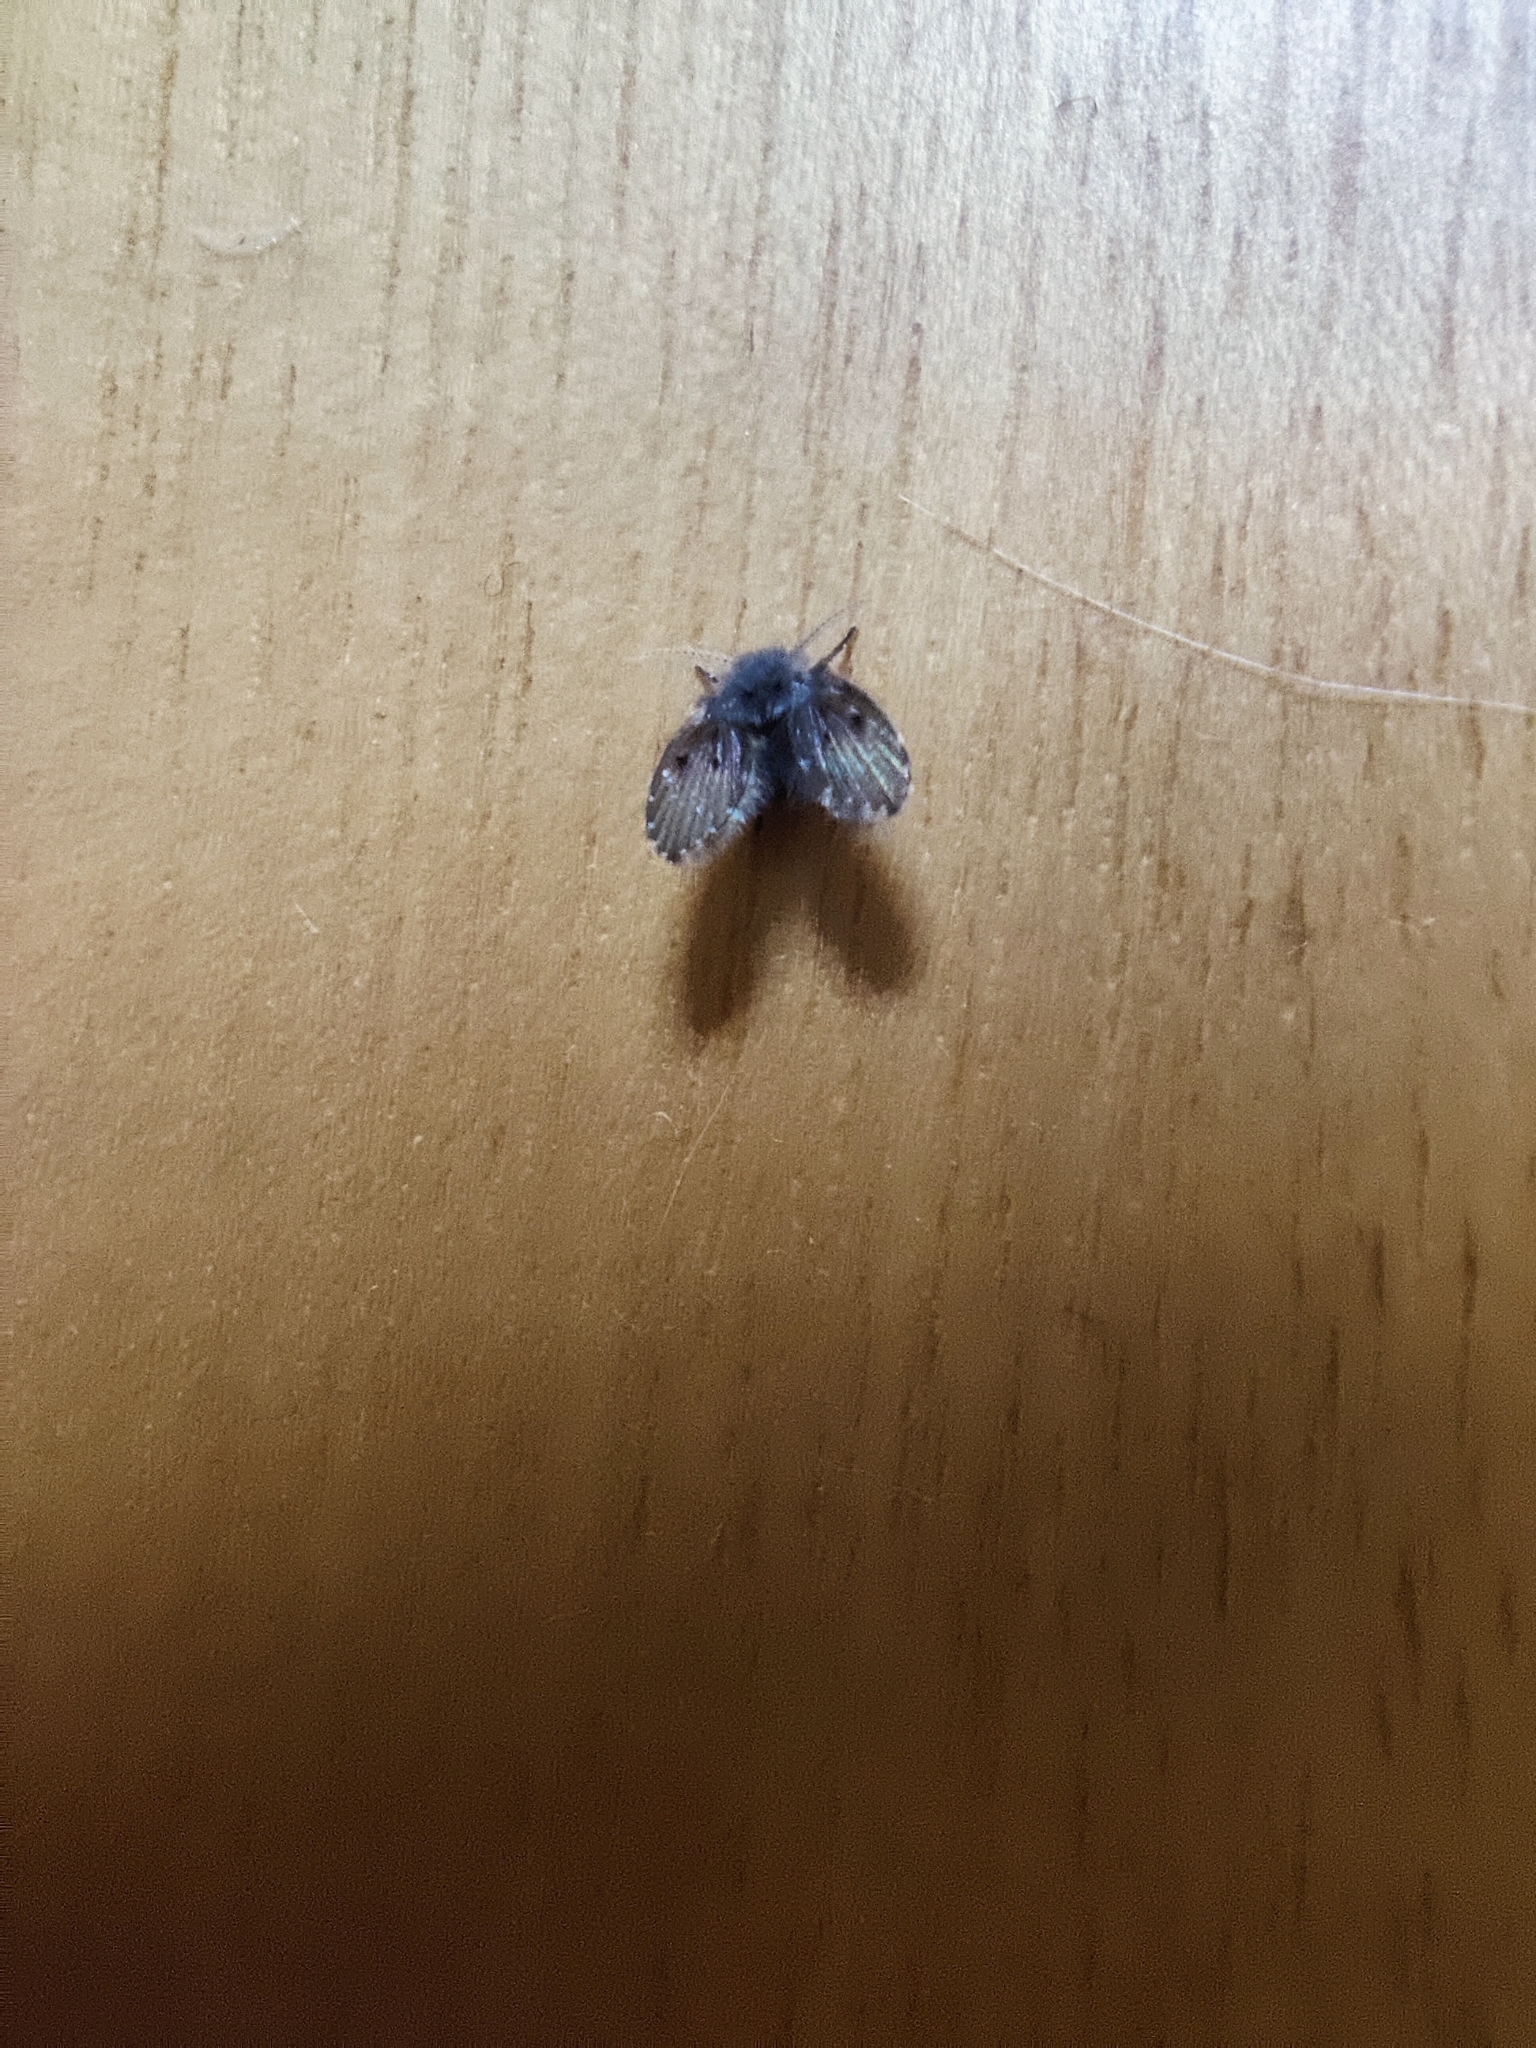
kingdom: Animalia
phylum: Arthropoda
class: Insecta
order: Diptera
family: Psychodidae
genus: Clogmia
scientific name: Clogmia albipunctatus
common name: White-spotted moth fly
